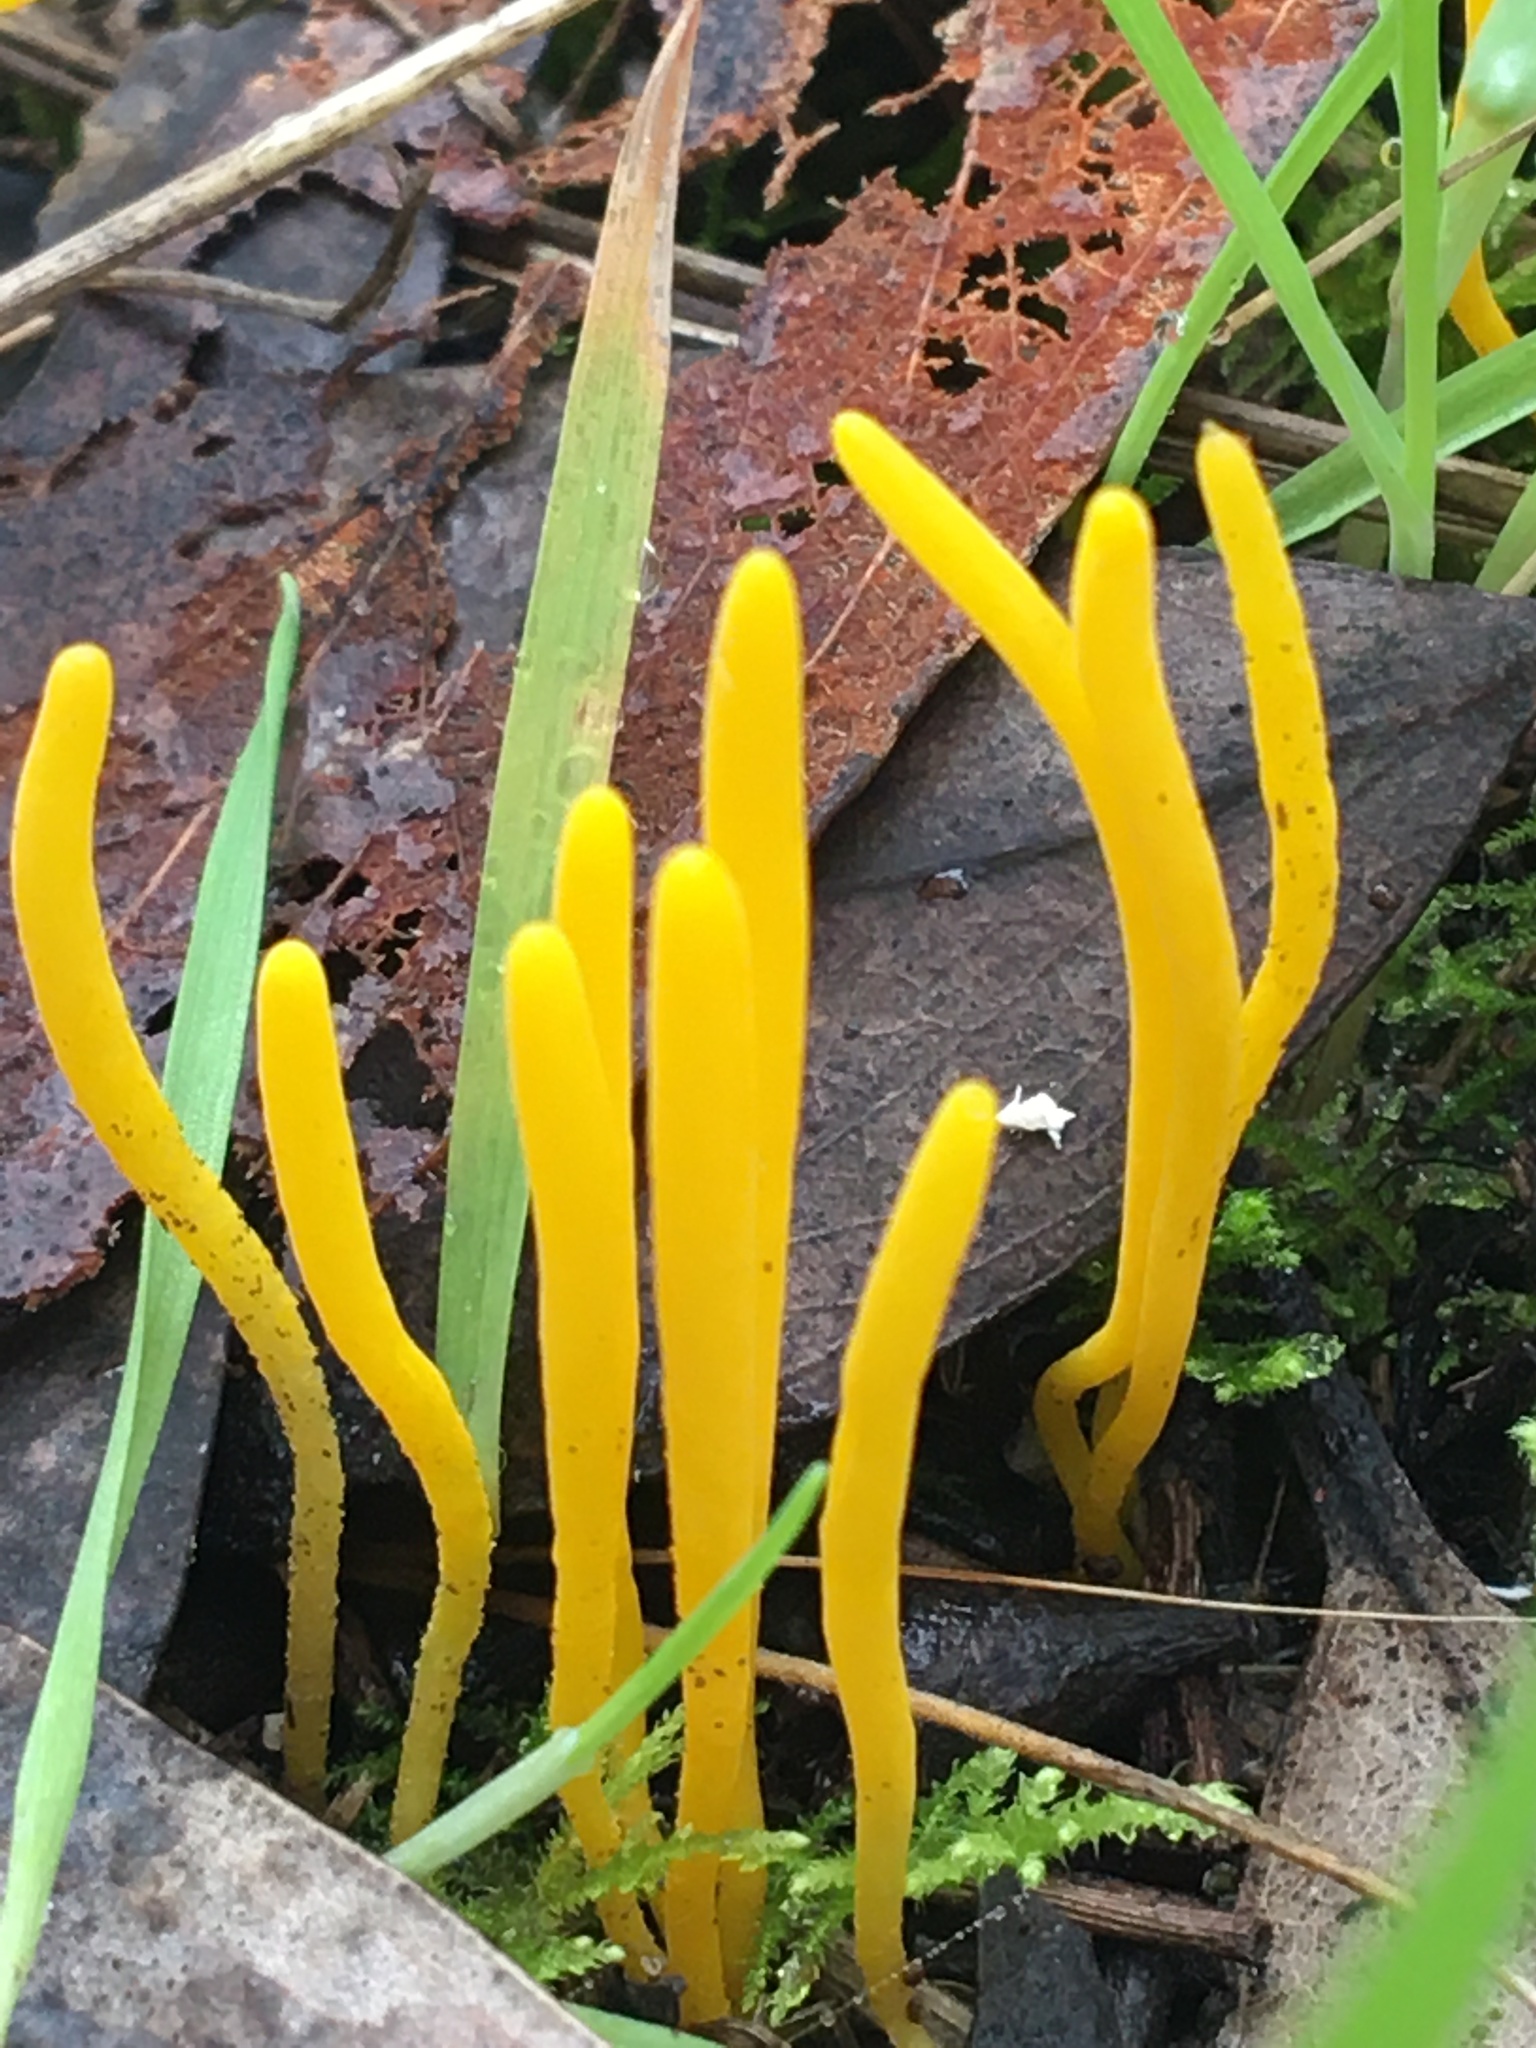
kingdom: Fungi
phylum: Basidiomycota
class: Agaricomycetes
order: Agaricales
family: Clavariaceae
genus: Clavulinopsis
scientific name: Clavulinopsis amoena
